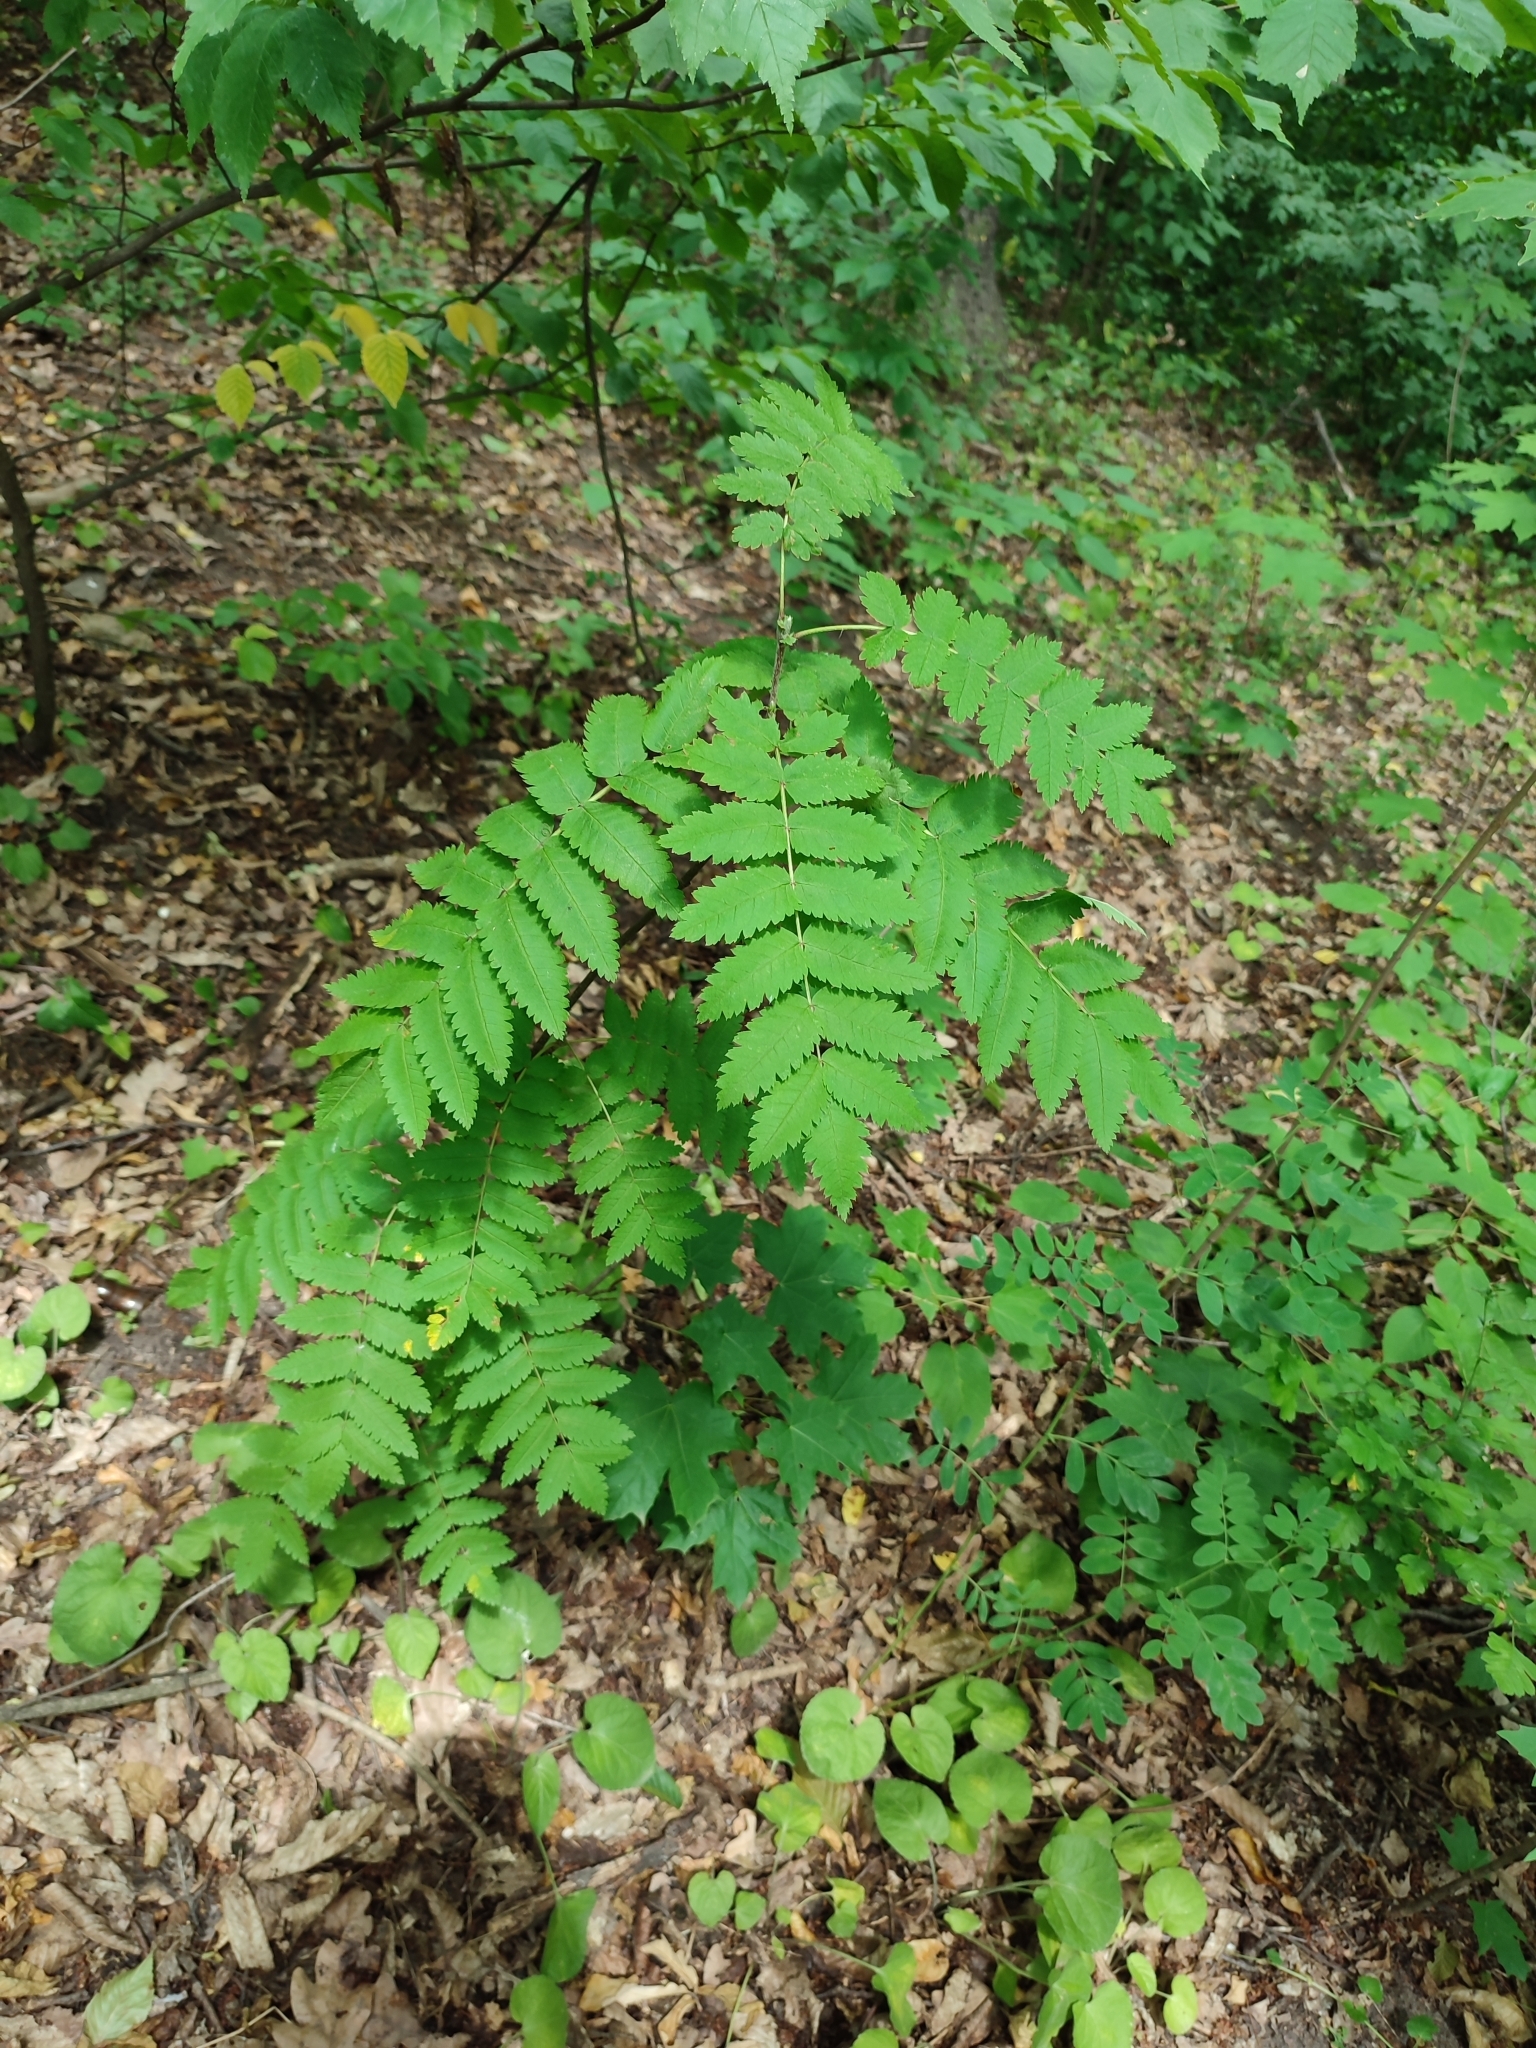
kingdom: Plantae
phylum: Tracheophyta
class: Magnoliopsida
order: Rosales
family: Rosaceae
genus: Sorbus
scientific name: Sorbus aucuparia
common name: Rowan
